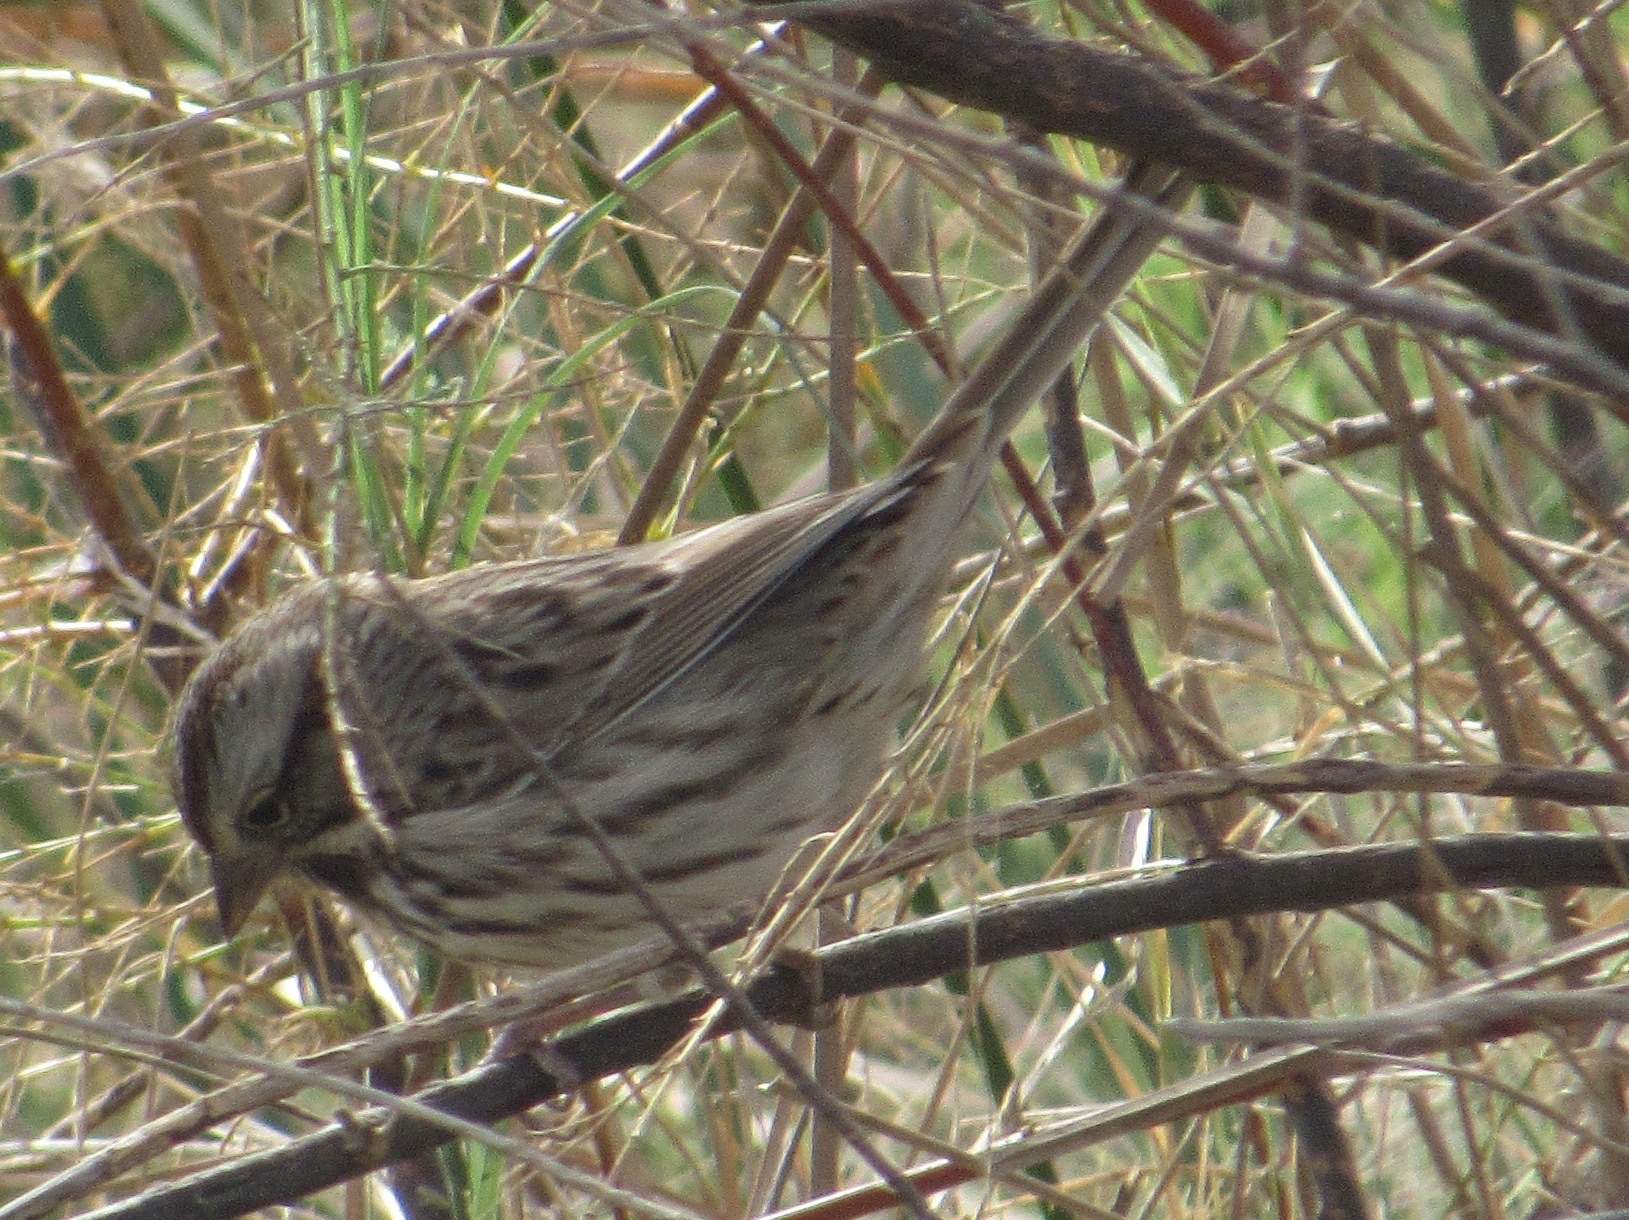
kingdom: Animalia
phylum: Chordata
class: Aves
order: Passeriformes
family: Passerellidae
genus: Melospiza
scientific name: Melospiza melodia
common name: Song sparrow
